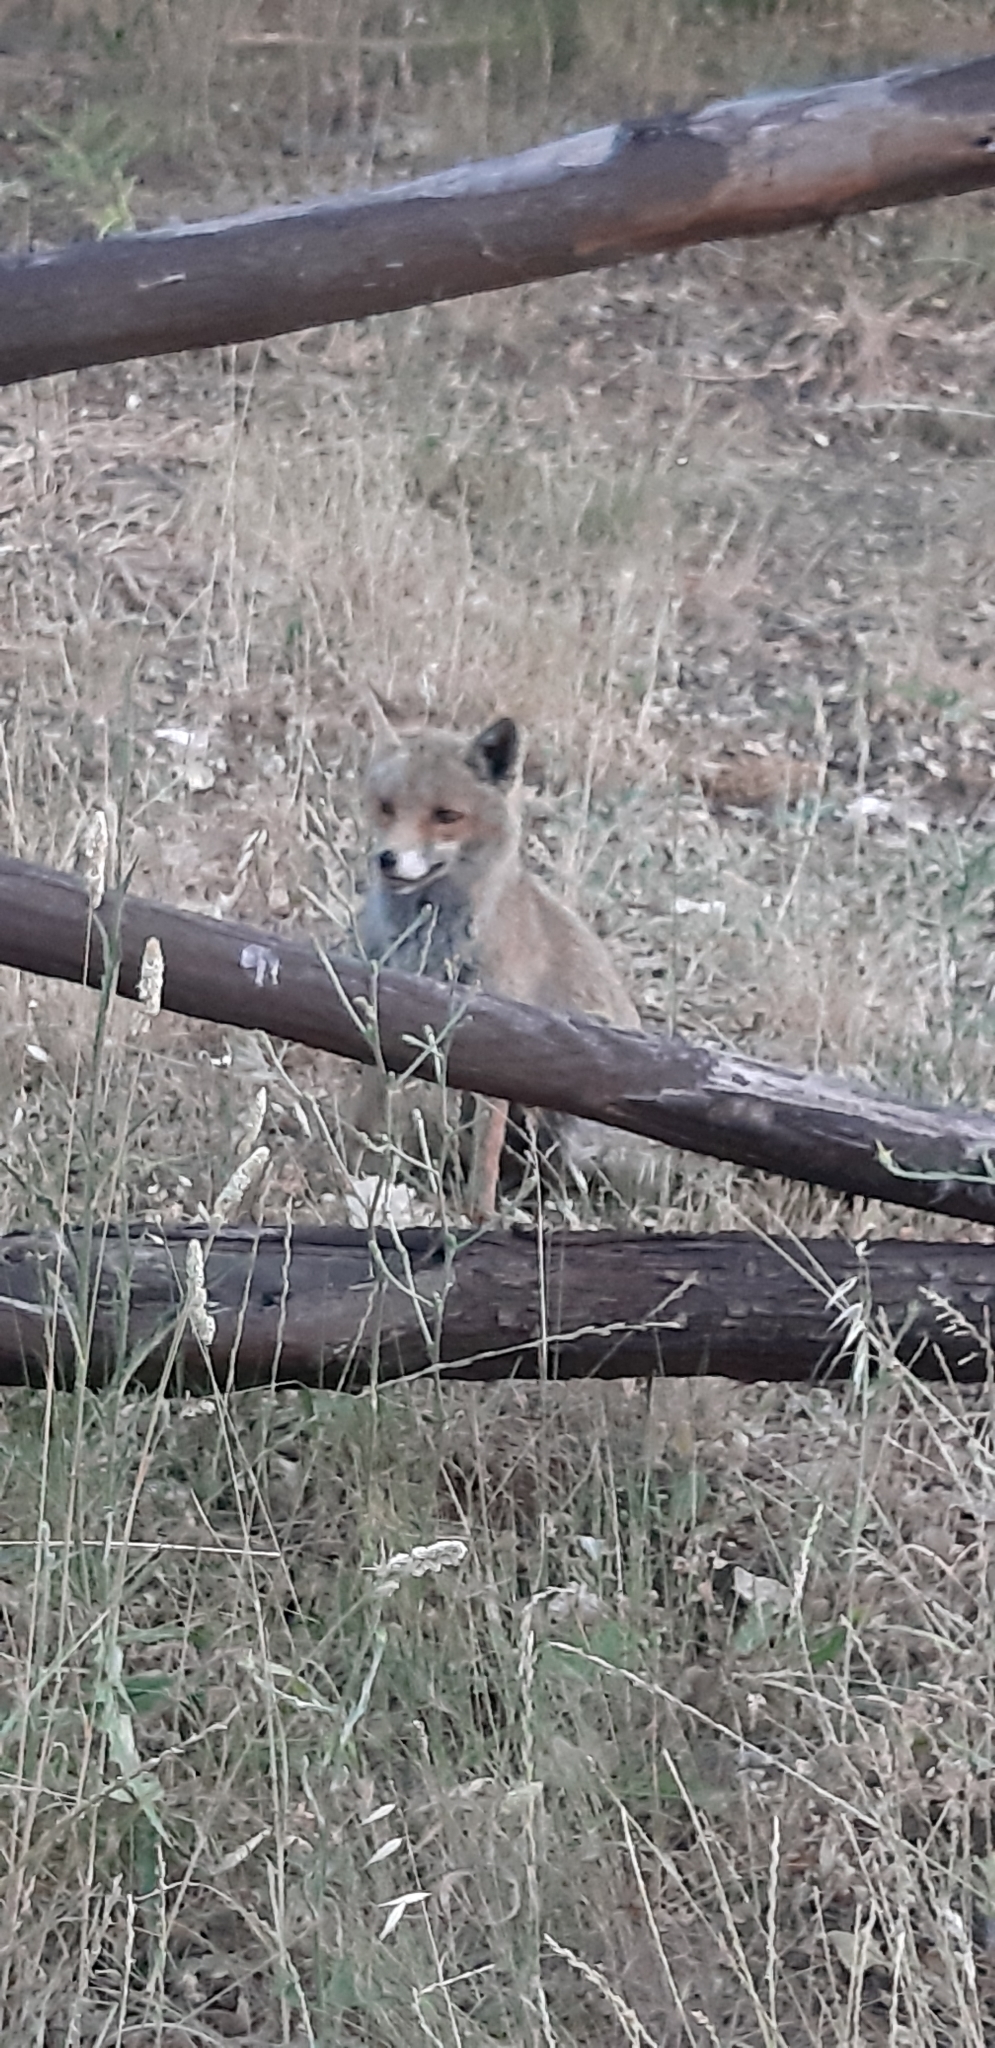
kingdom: Animalia
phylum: Chordata
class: Mammalia
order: Carnivora
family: Canidae
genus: Vulpes
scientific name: Vulpes vulpes
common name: Red fox
